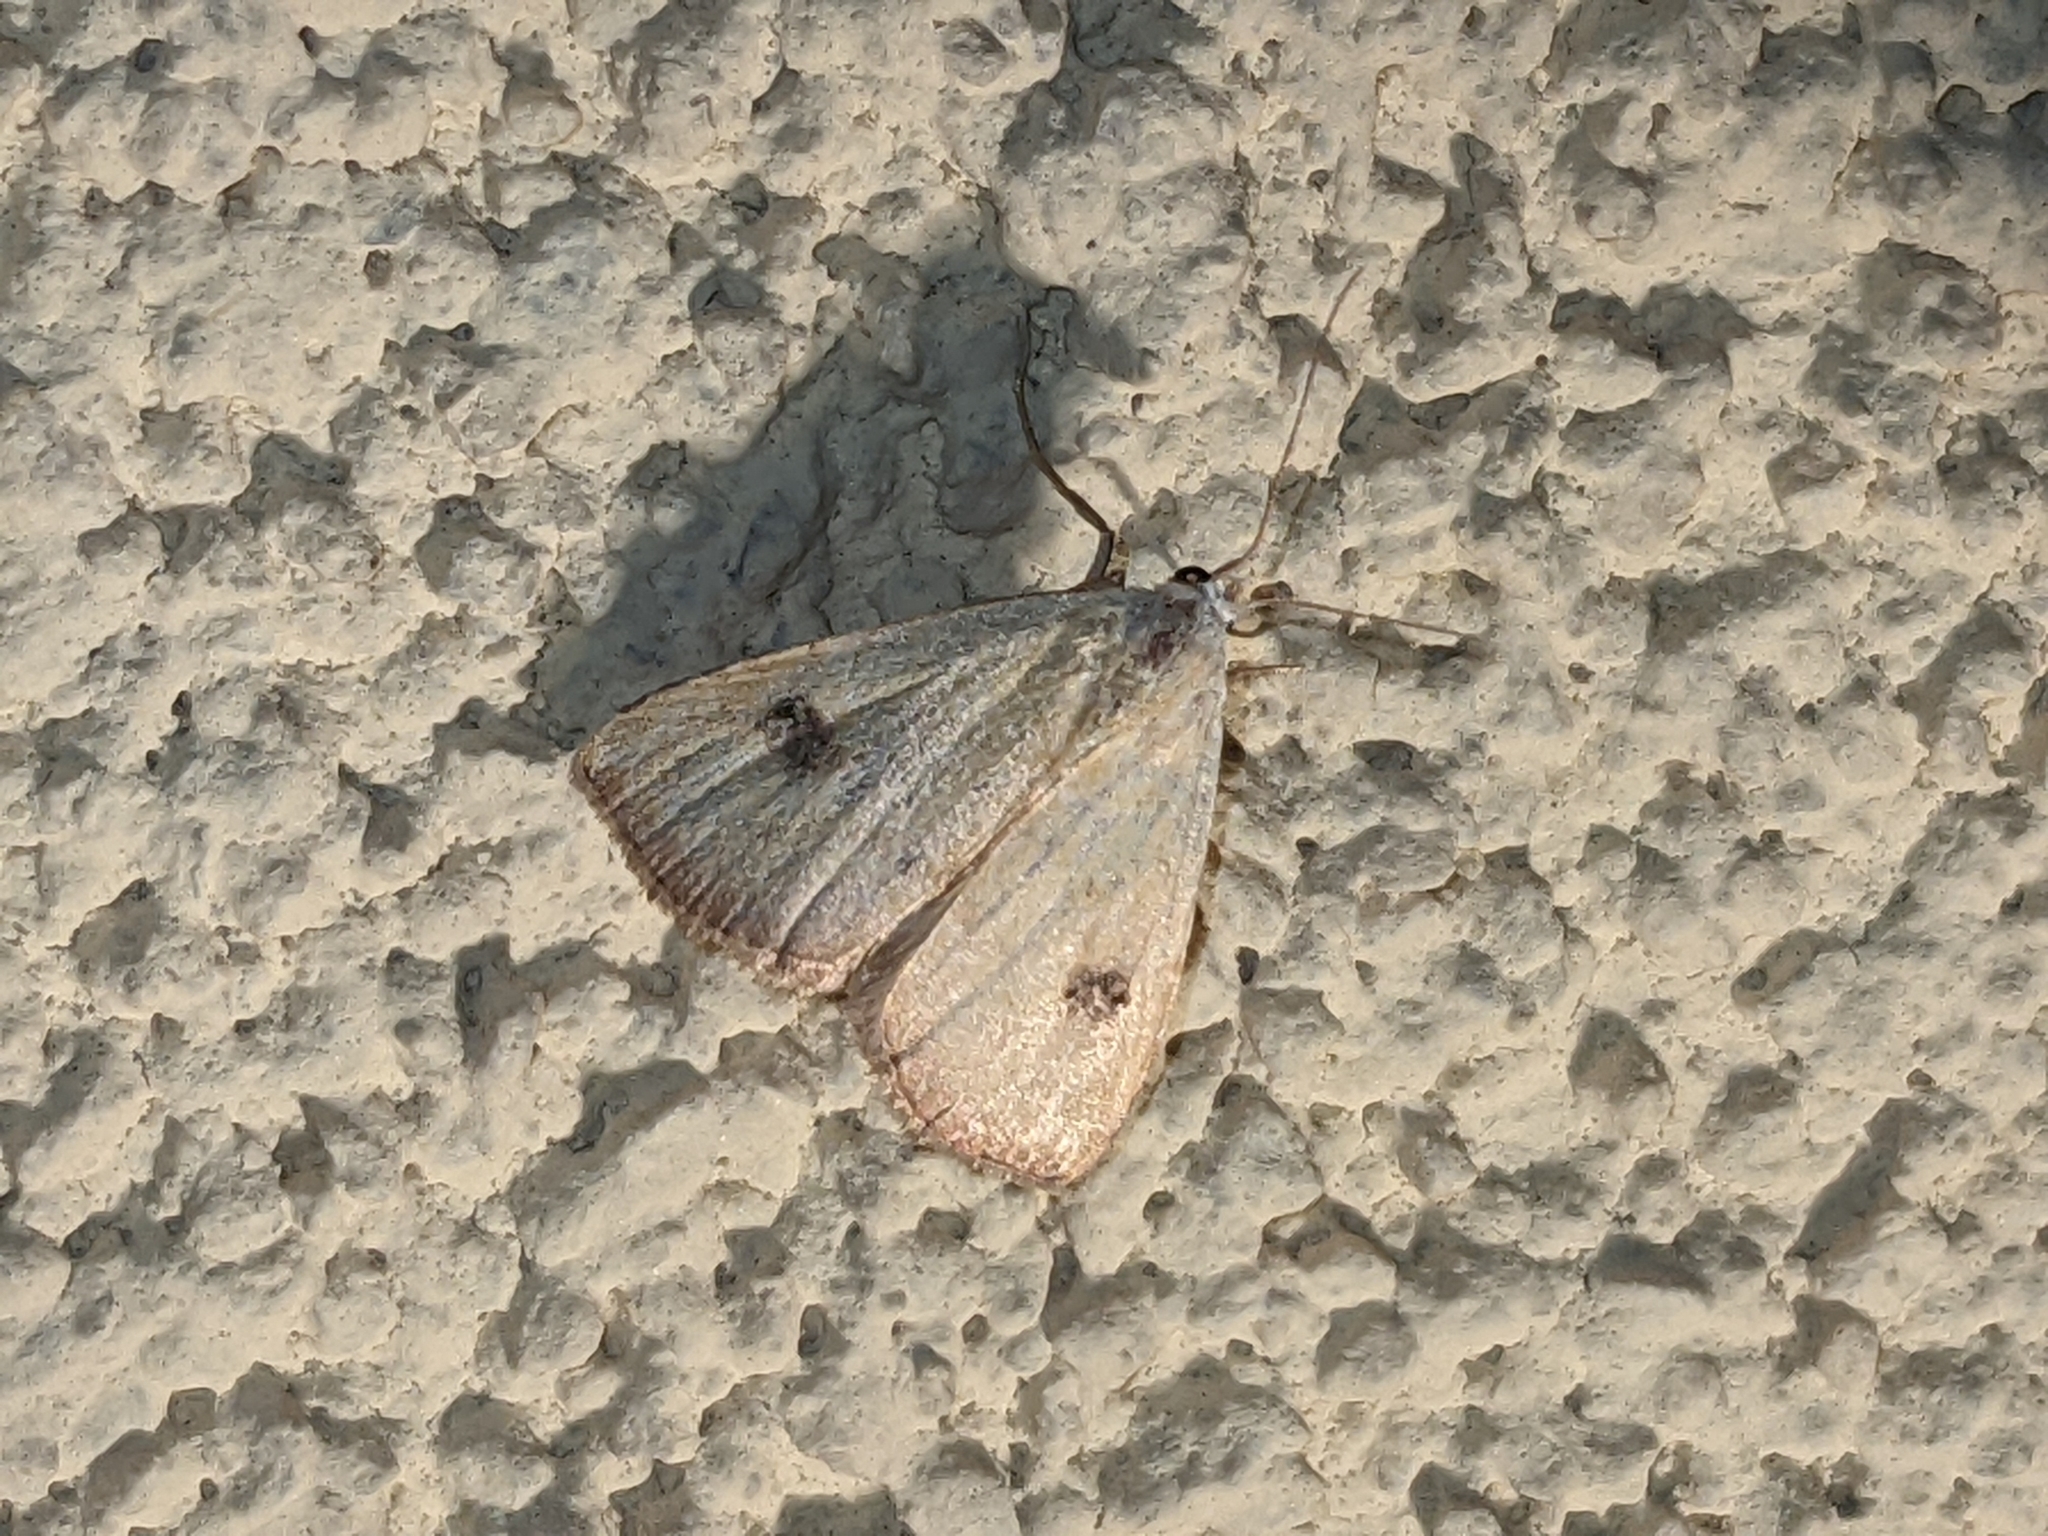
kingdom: Animalia
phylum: Arthropoda
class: Insecta
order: Lepidoptera
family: Erebidae
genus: Rivula
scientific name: Rivula sericealis
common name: Straw dot
